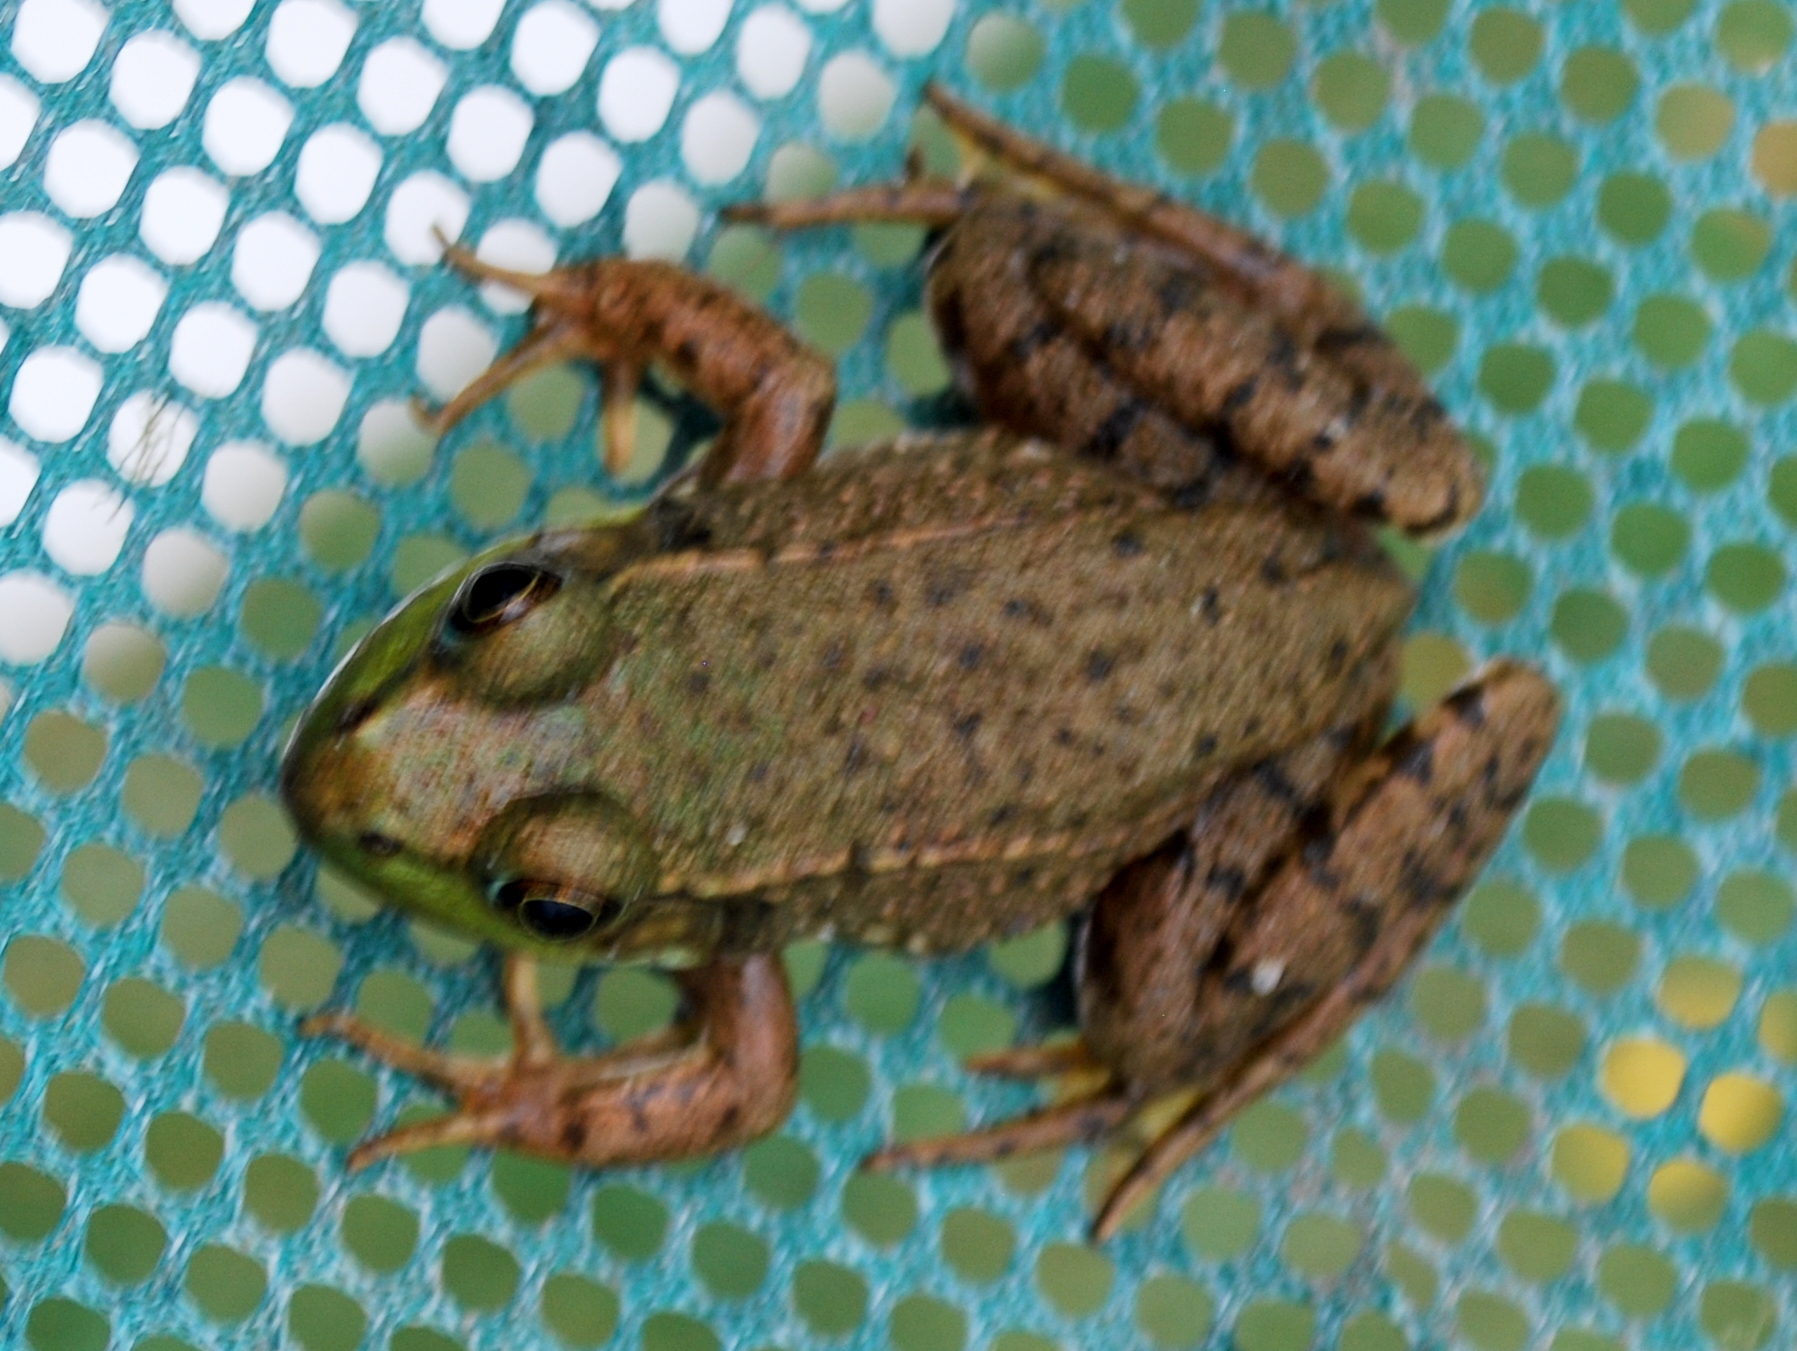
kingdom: Animalia
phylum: Chordata
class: Amphibia
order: Anura
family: Ranidae
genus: Lithobates
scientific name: Lithobates clamitans
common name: Green frog
